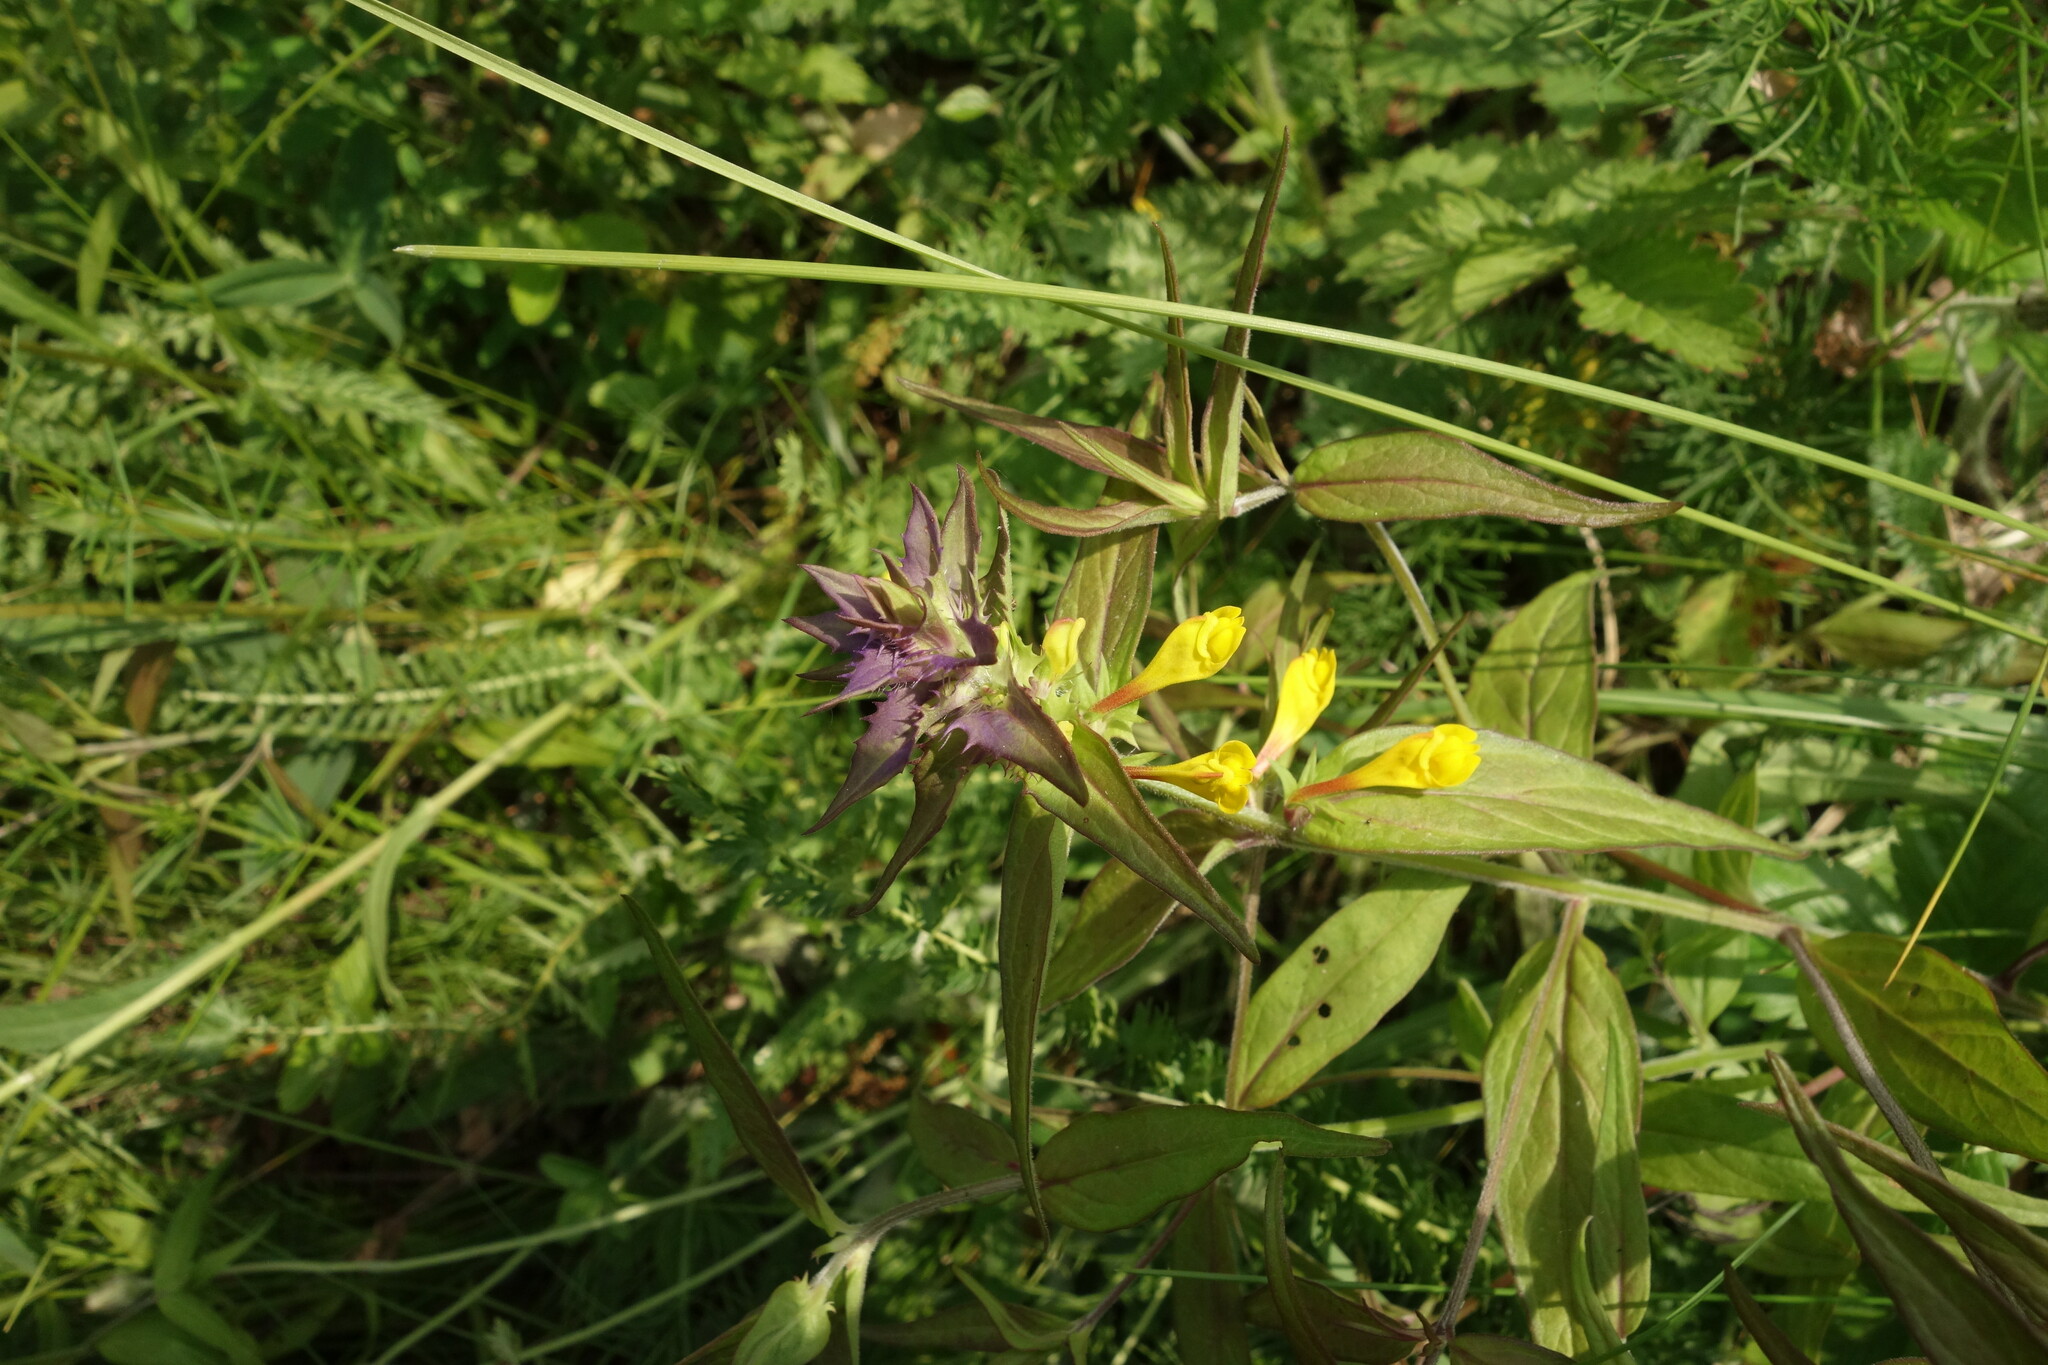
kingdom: Plantae
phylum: Tracheophyta
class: Magnoliopsida
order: Lamiales
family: Orobanchaceae
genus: Melampyrum
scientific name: Melampyrum nemorosum
